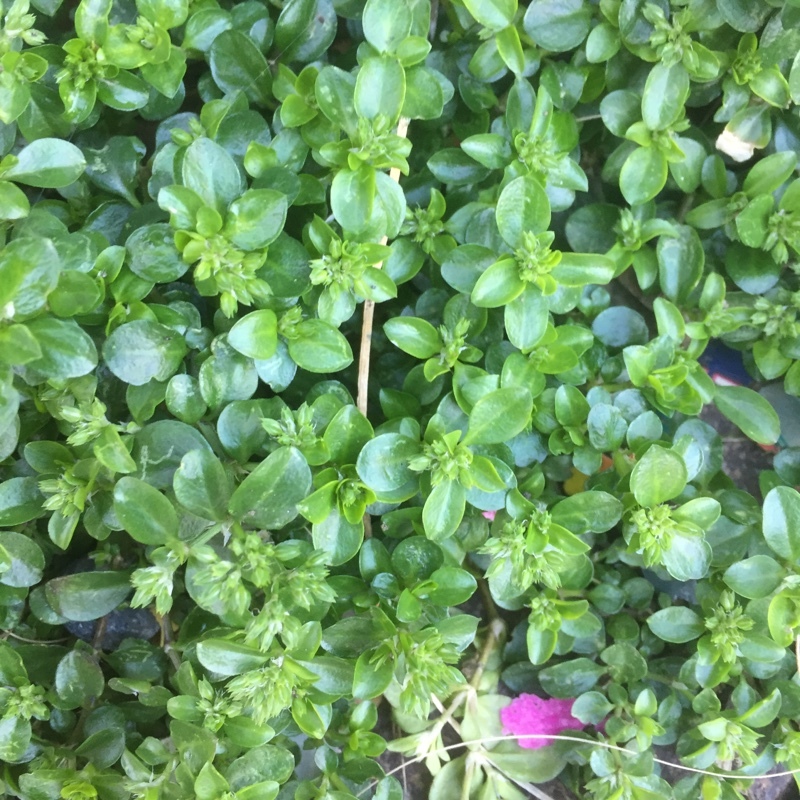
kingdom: Plantae
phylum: Tracheophyta
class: Magnoliopsida
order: Caryophyllales
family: Caryophyllaceae
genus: Polycarpon
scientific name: Polycarpon tetraphyllum
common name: Four-leaved all-seed
